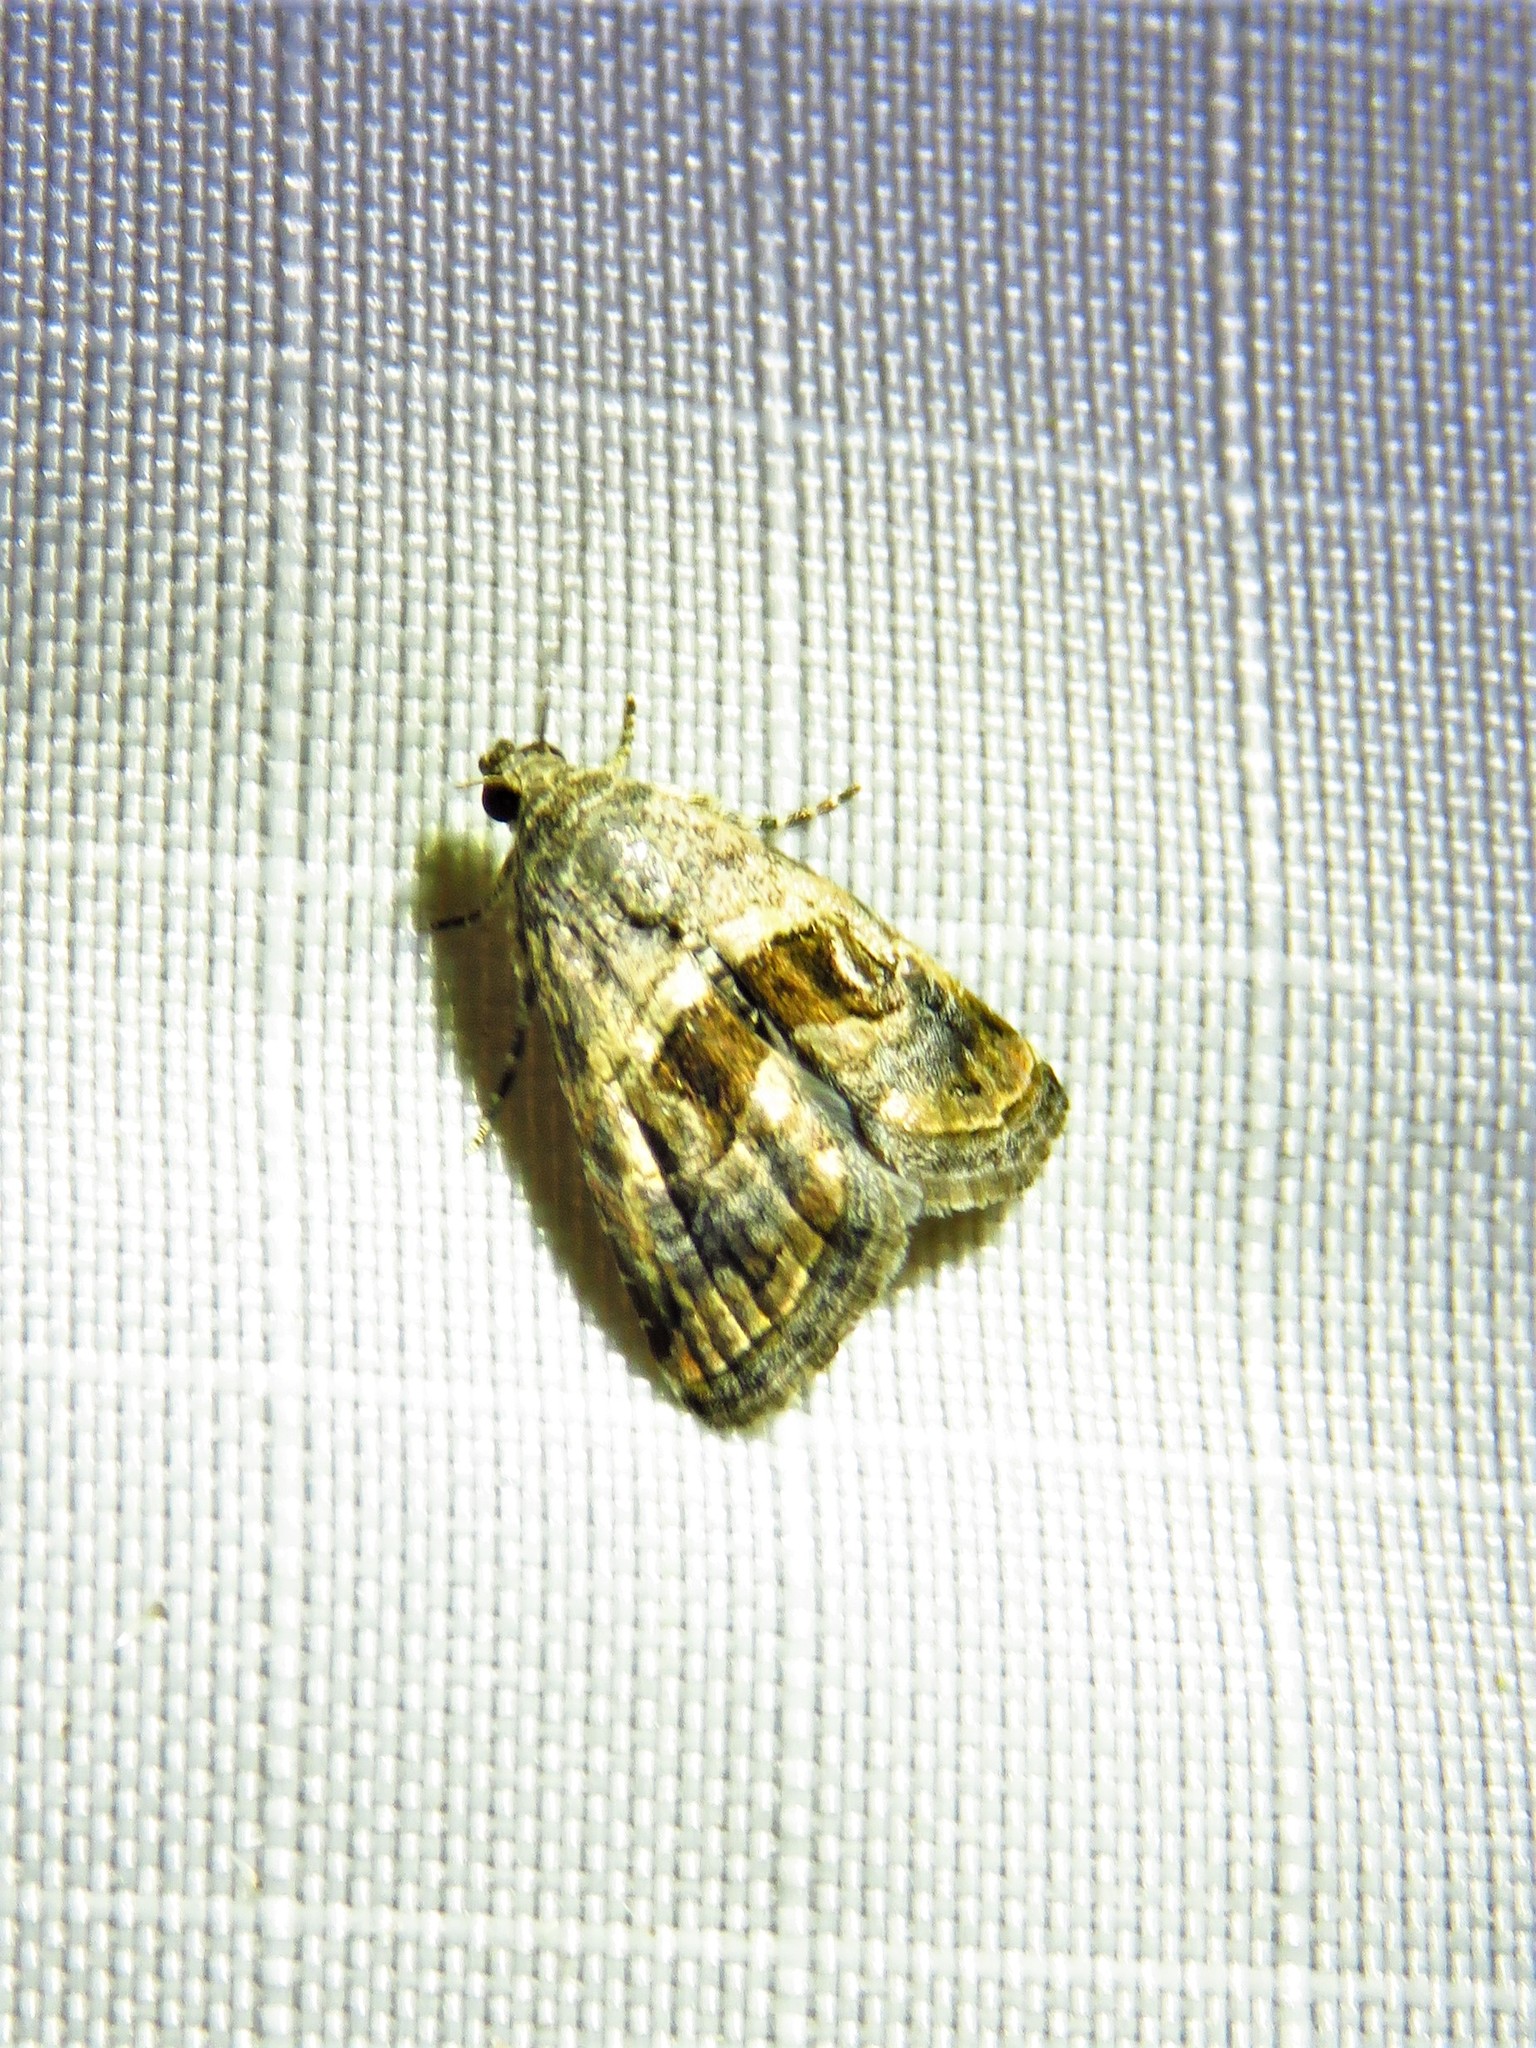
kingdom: Animalia
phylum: Arthropoda
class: Insecta
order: Lepidoptera
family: Noctuidae
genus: Tripudia
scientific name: Tripudia quadrifera
